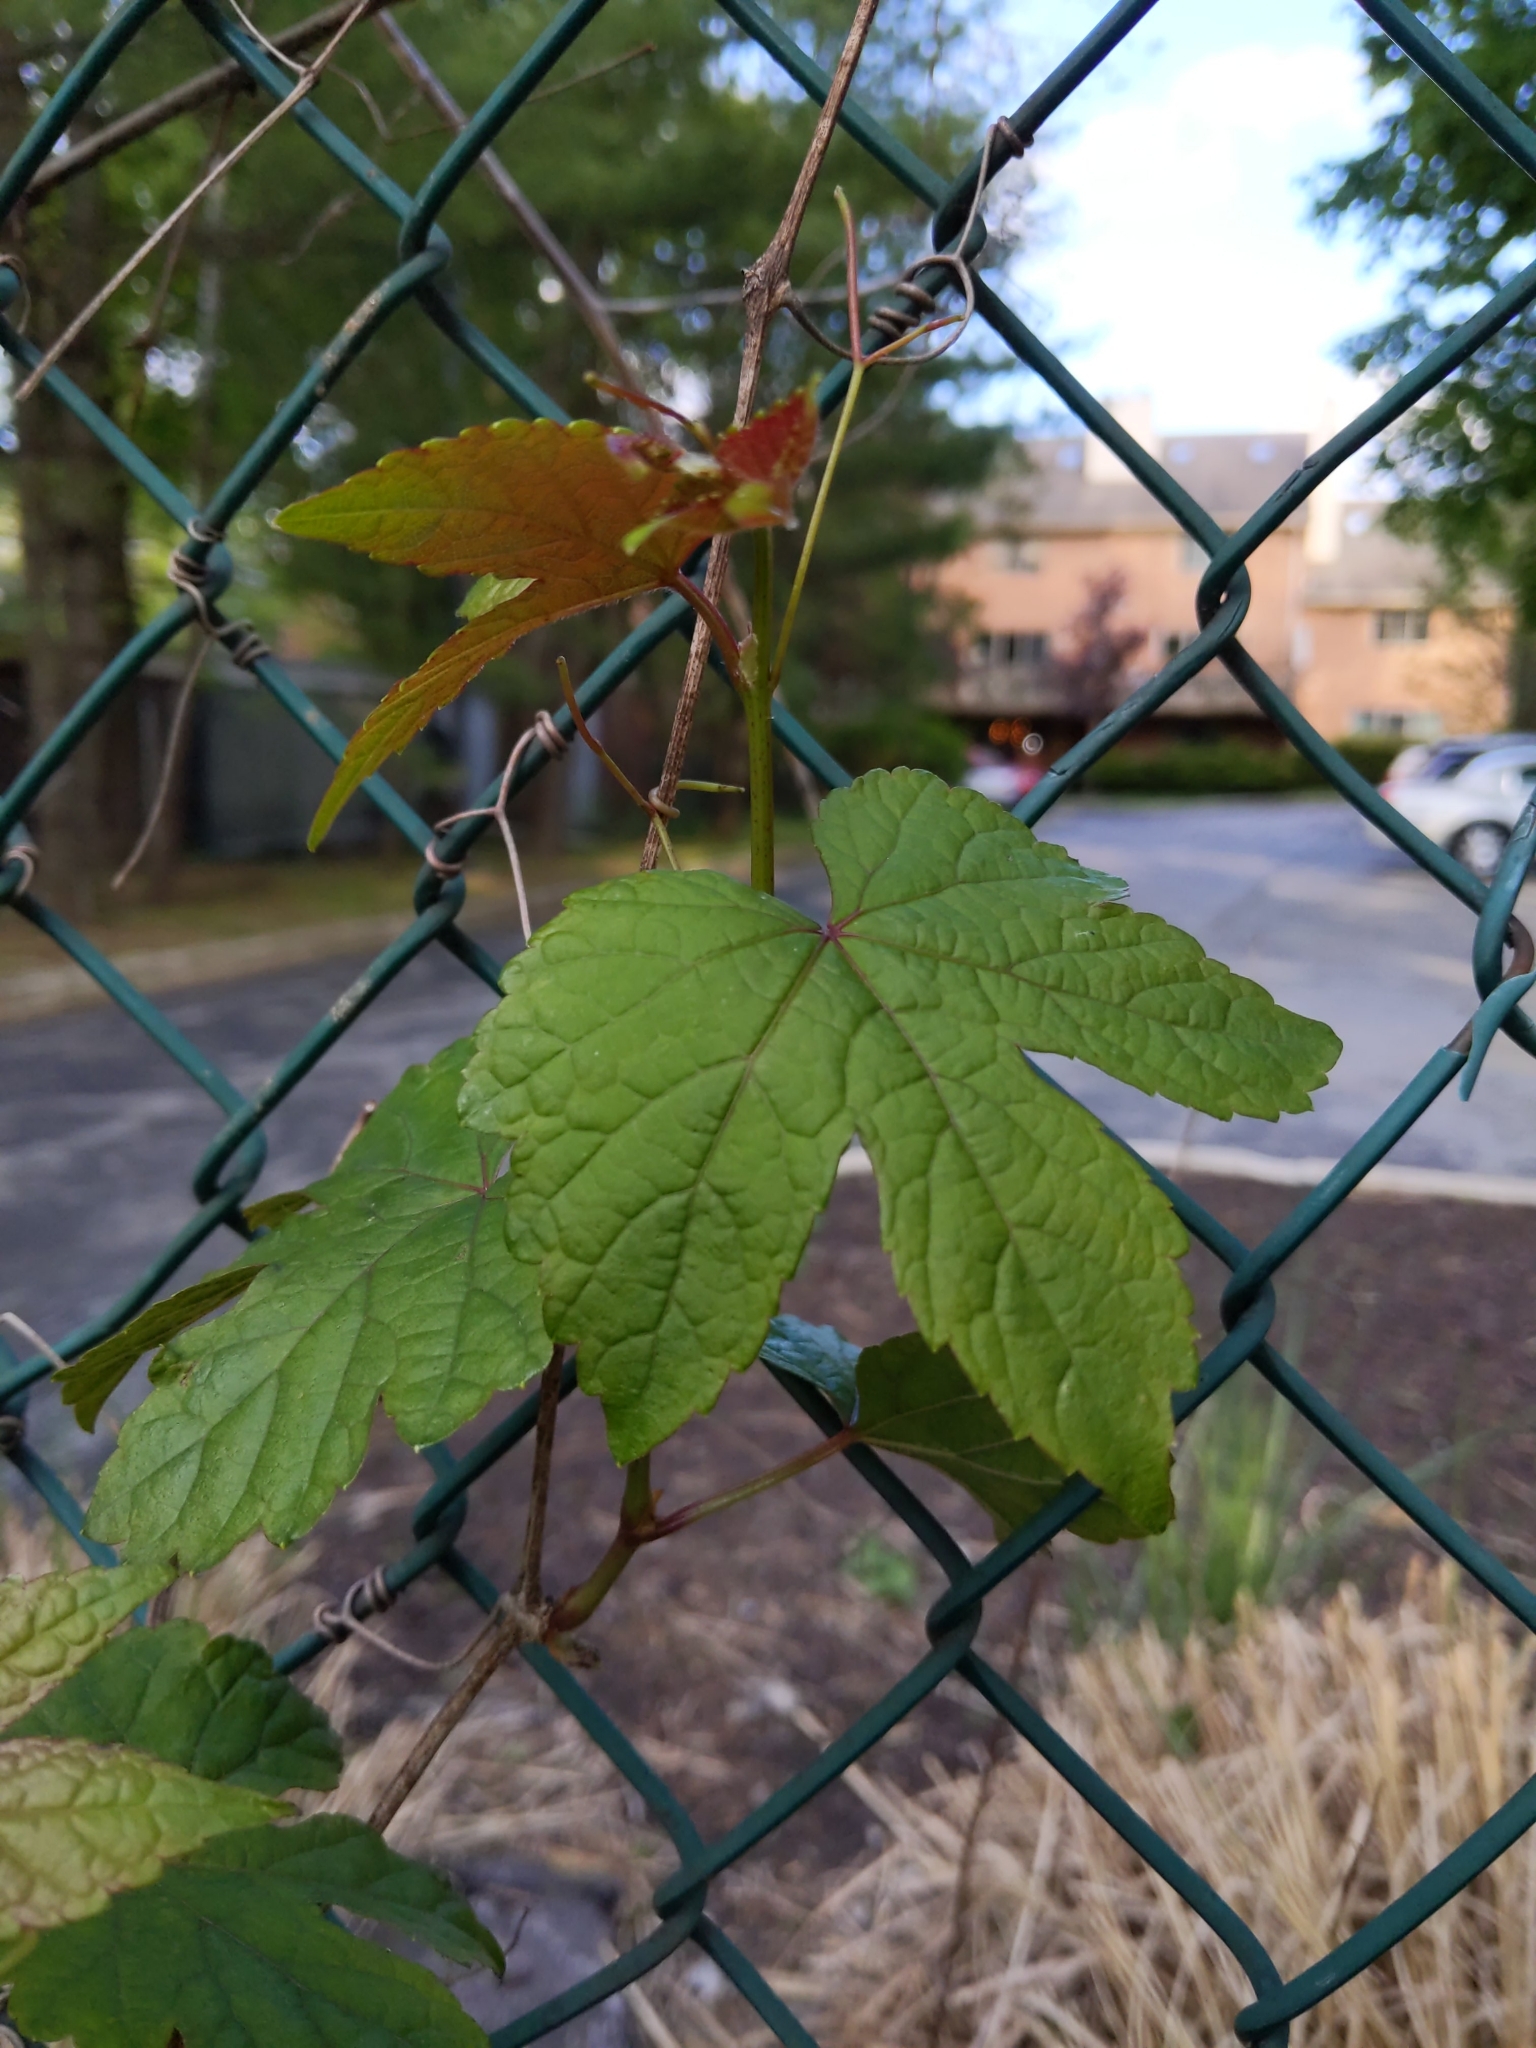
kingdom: Plantae
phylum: Tracheophyta
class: Magnoliopsida
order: Vitales
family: Vitaceae
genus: Ampelopsis
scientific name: Ampelopsis glandulosa
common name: Amur peppervine
